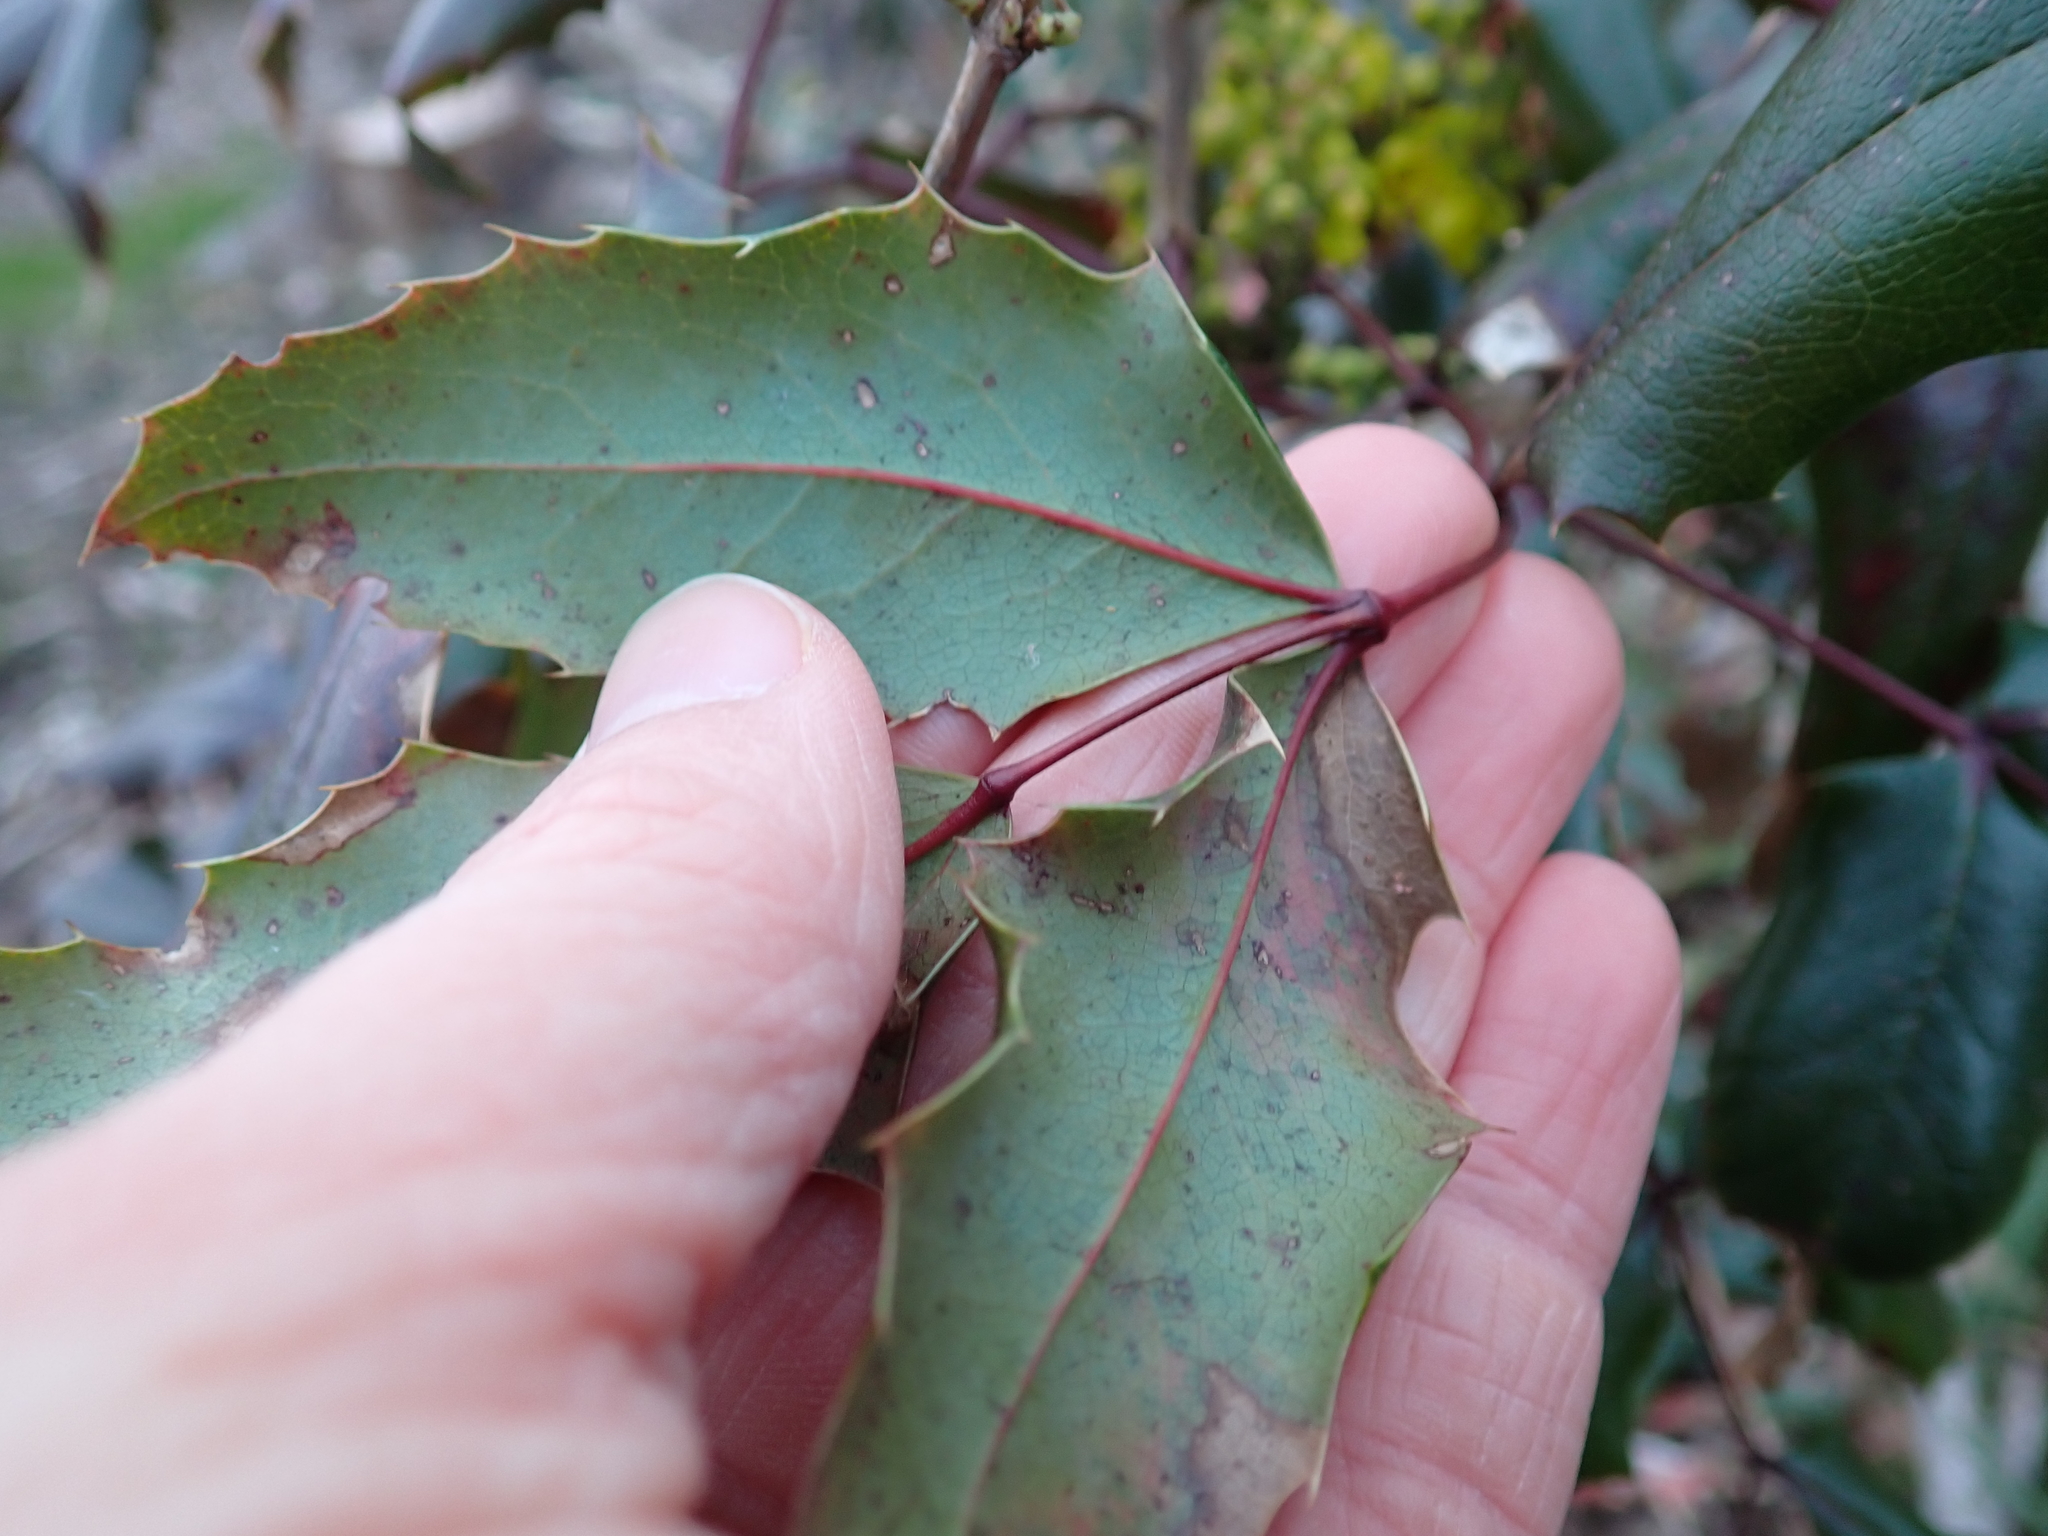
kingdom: Plantae
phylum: Tracheophyta
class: Magnoliopsida
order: Ranunculales
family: Berberidaceae
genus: Mahonia
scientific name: Mahonia aquifolium
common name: Oregon-grape
